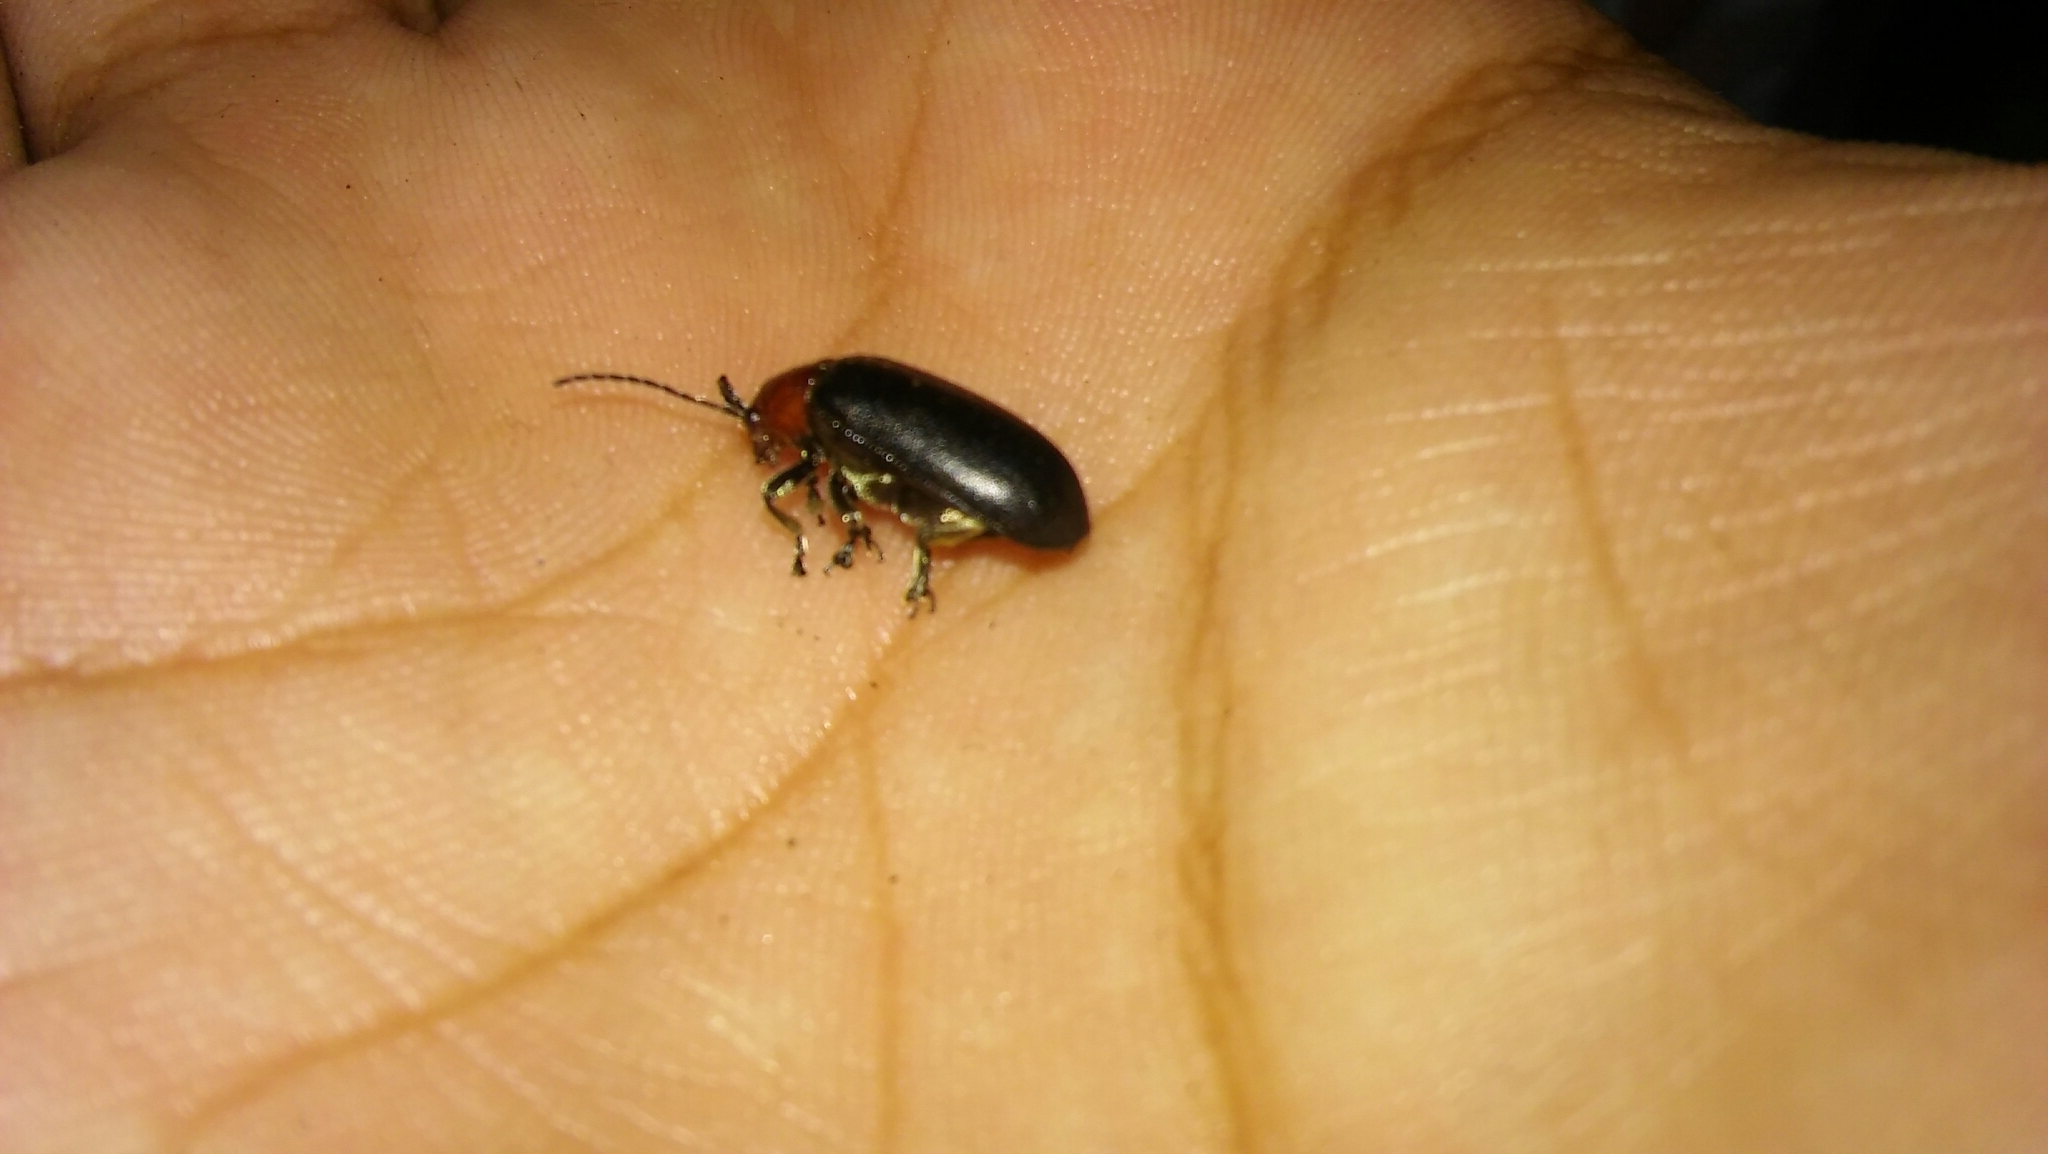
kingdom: Animalia
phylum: Arthropoda
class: Insecta
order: Coleoptera
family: Chrysomelidae
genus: Cacoscelis
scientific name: Cacoscelis
